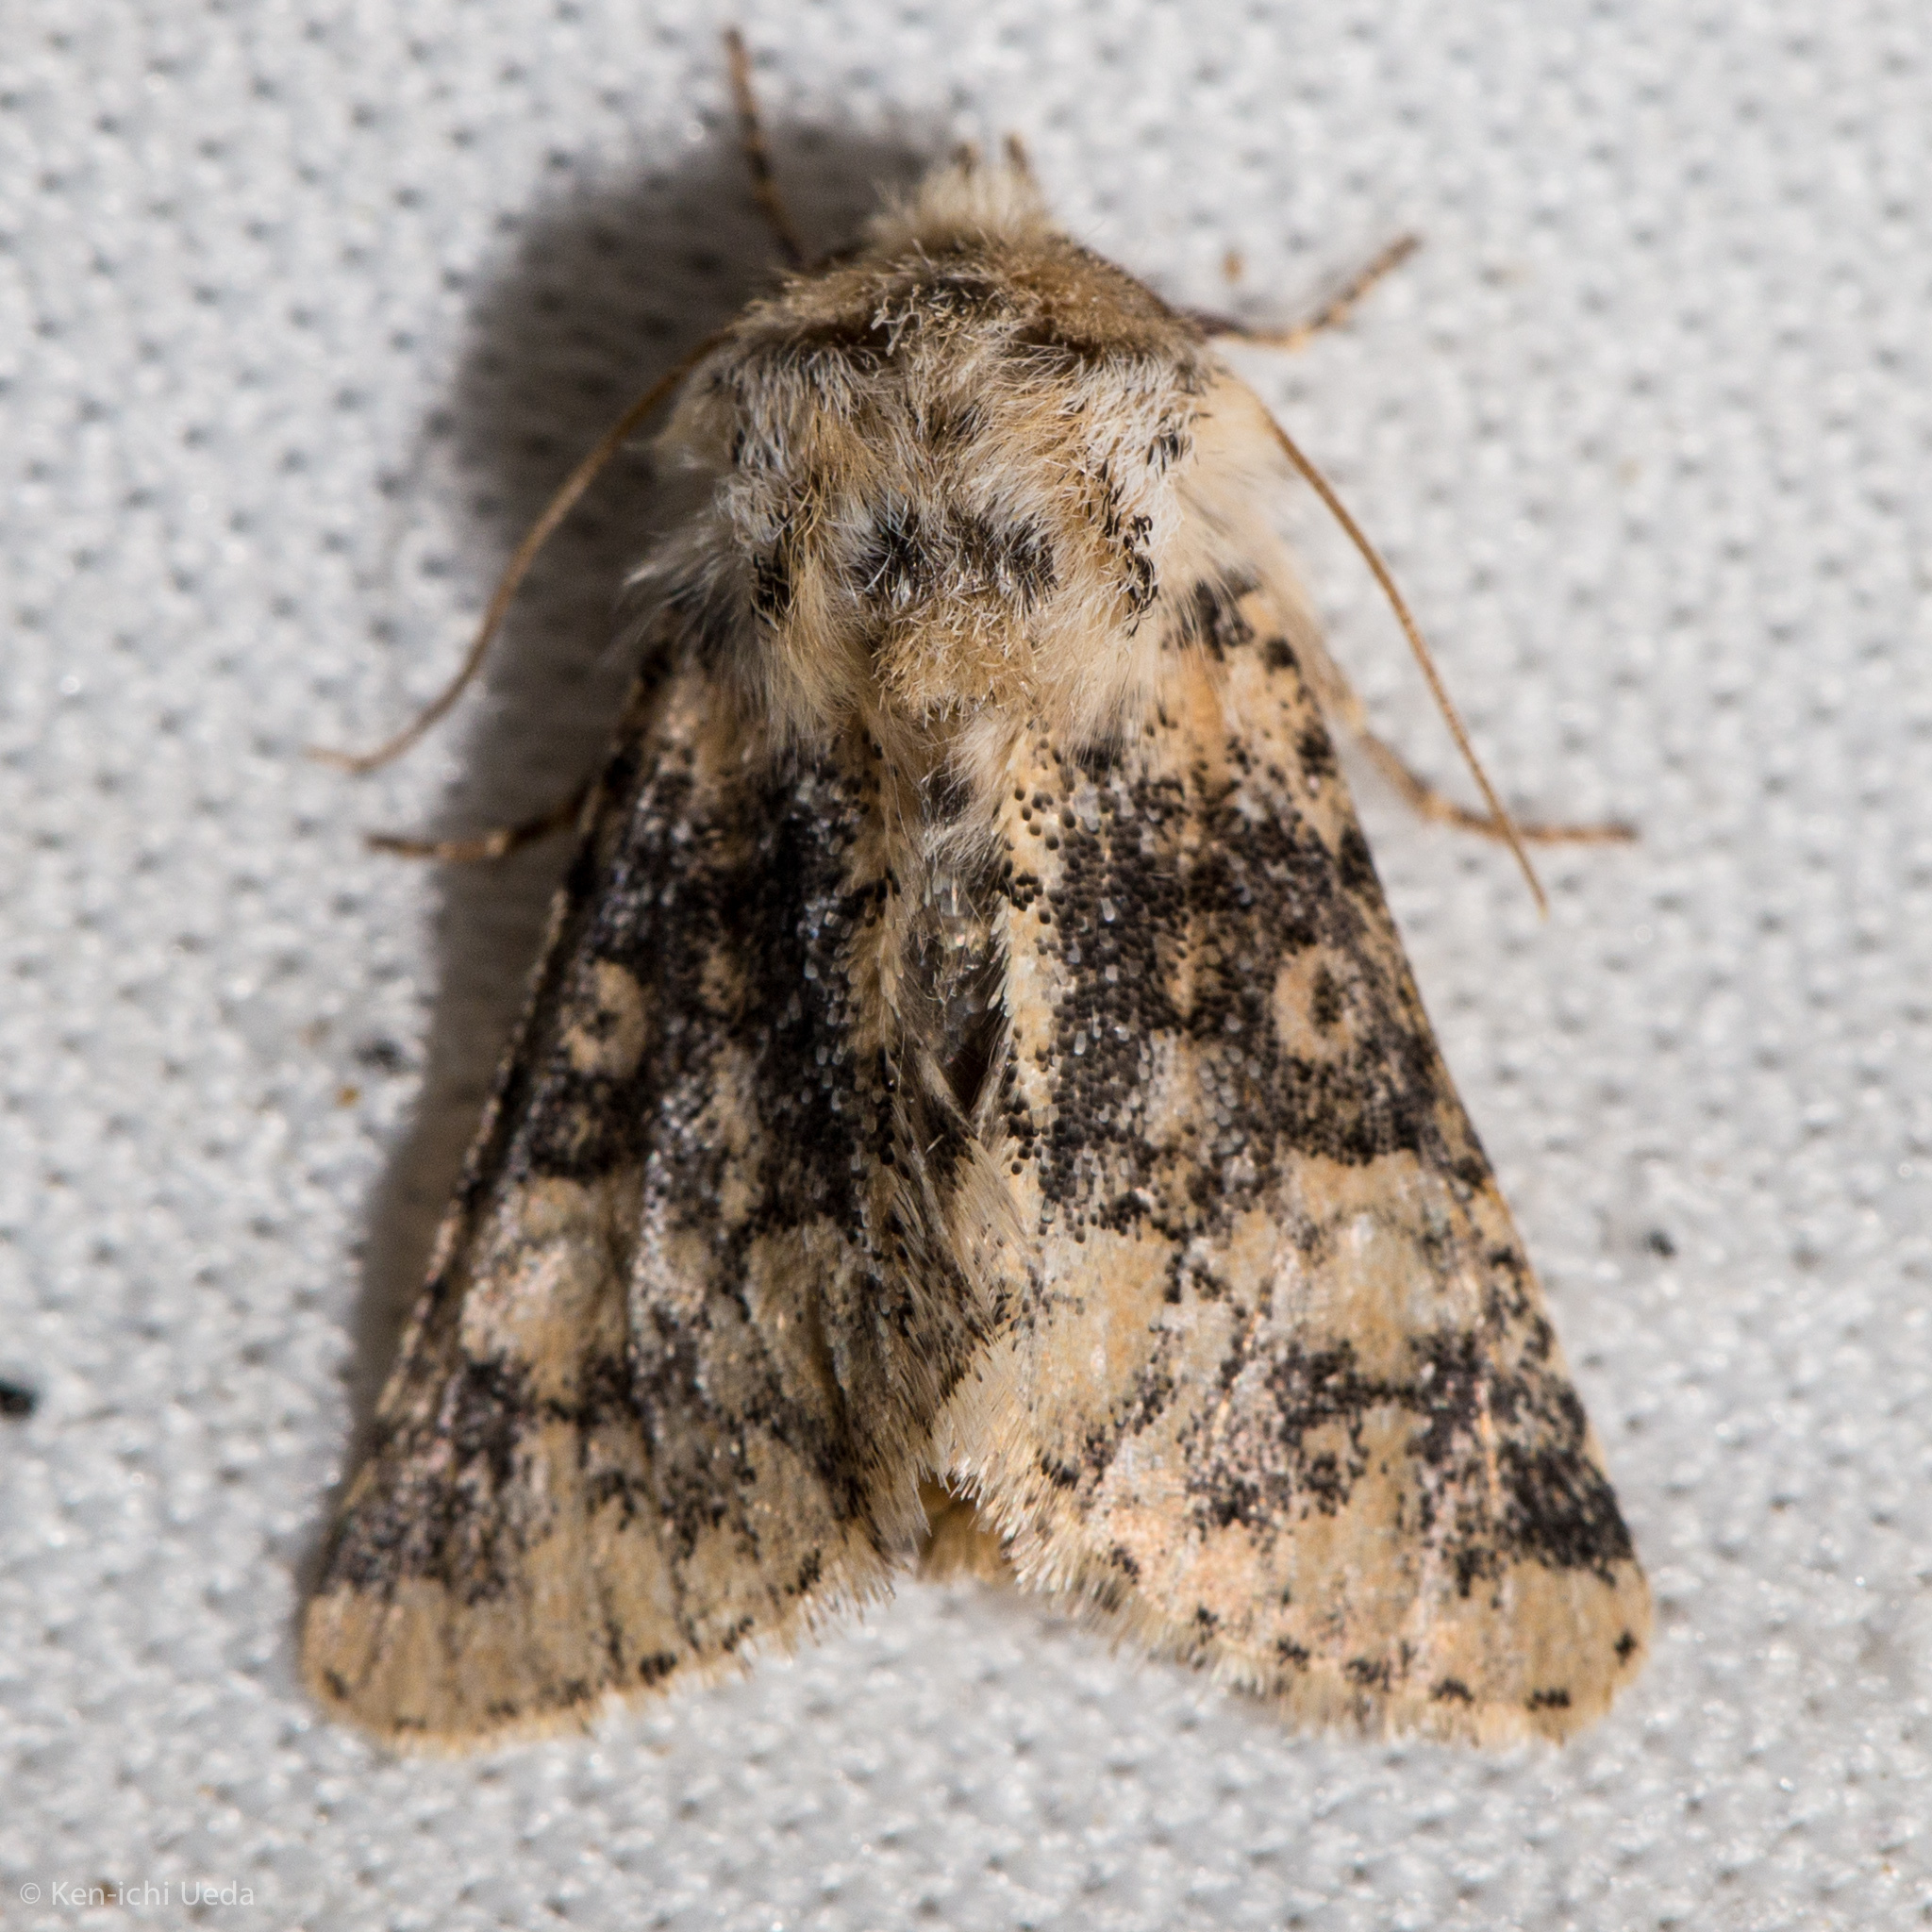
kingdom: Animalia
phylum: Arthropoda
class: Insecta
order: Lepidoptera
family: Noctuidae
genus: Unciella
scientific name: Unciella primula
